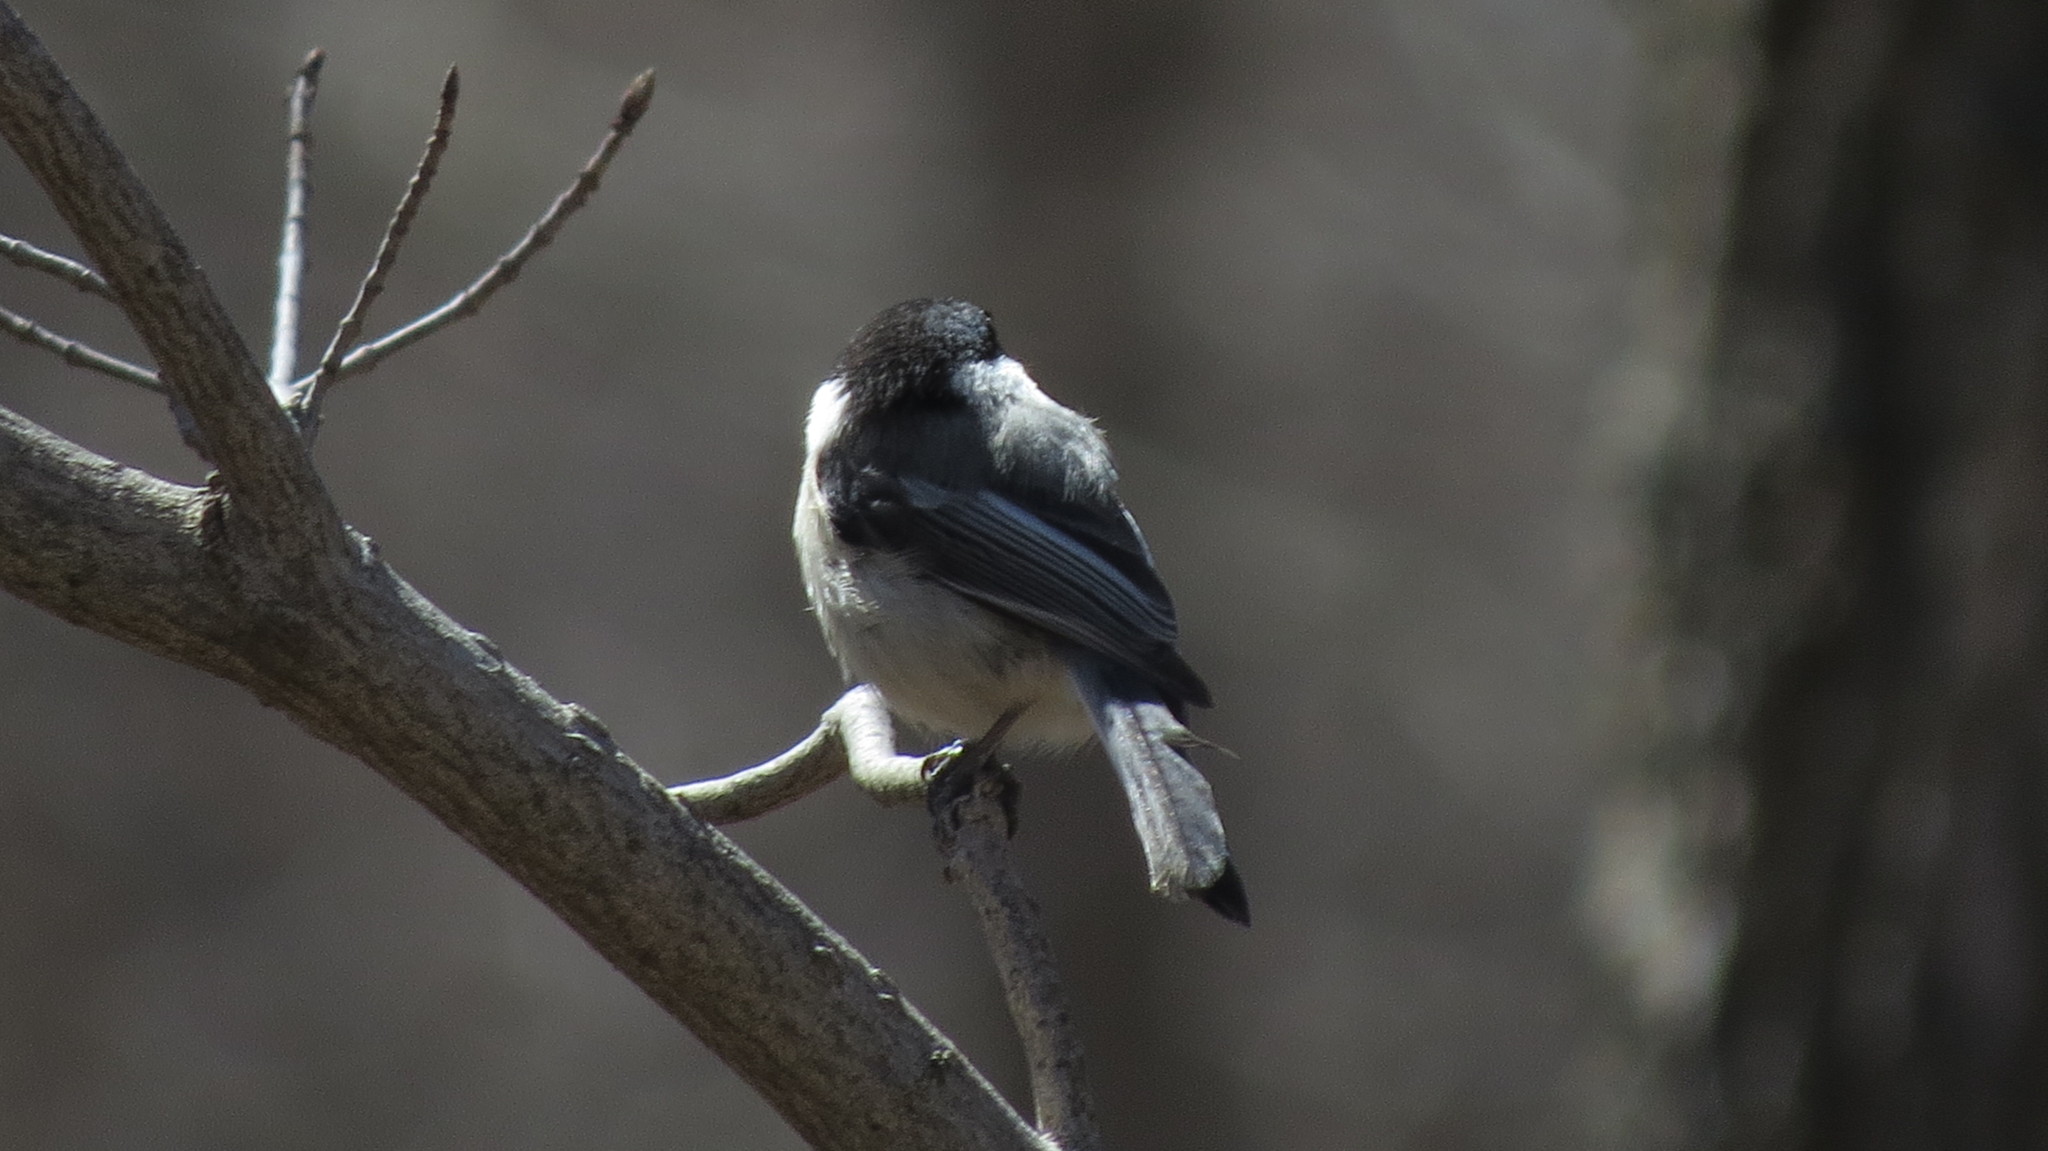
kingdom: Animalia
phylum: Chordata
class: Aves
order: Passeriformes
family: Paridae
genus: Poecile
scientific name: Poecile atricapillus
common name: Black-capped chickadee
